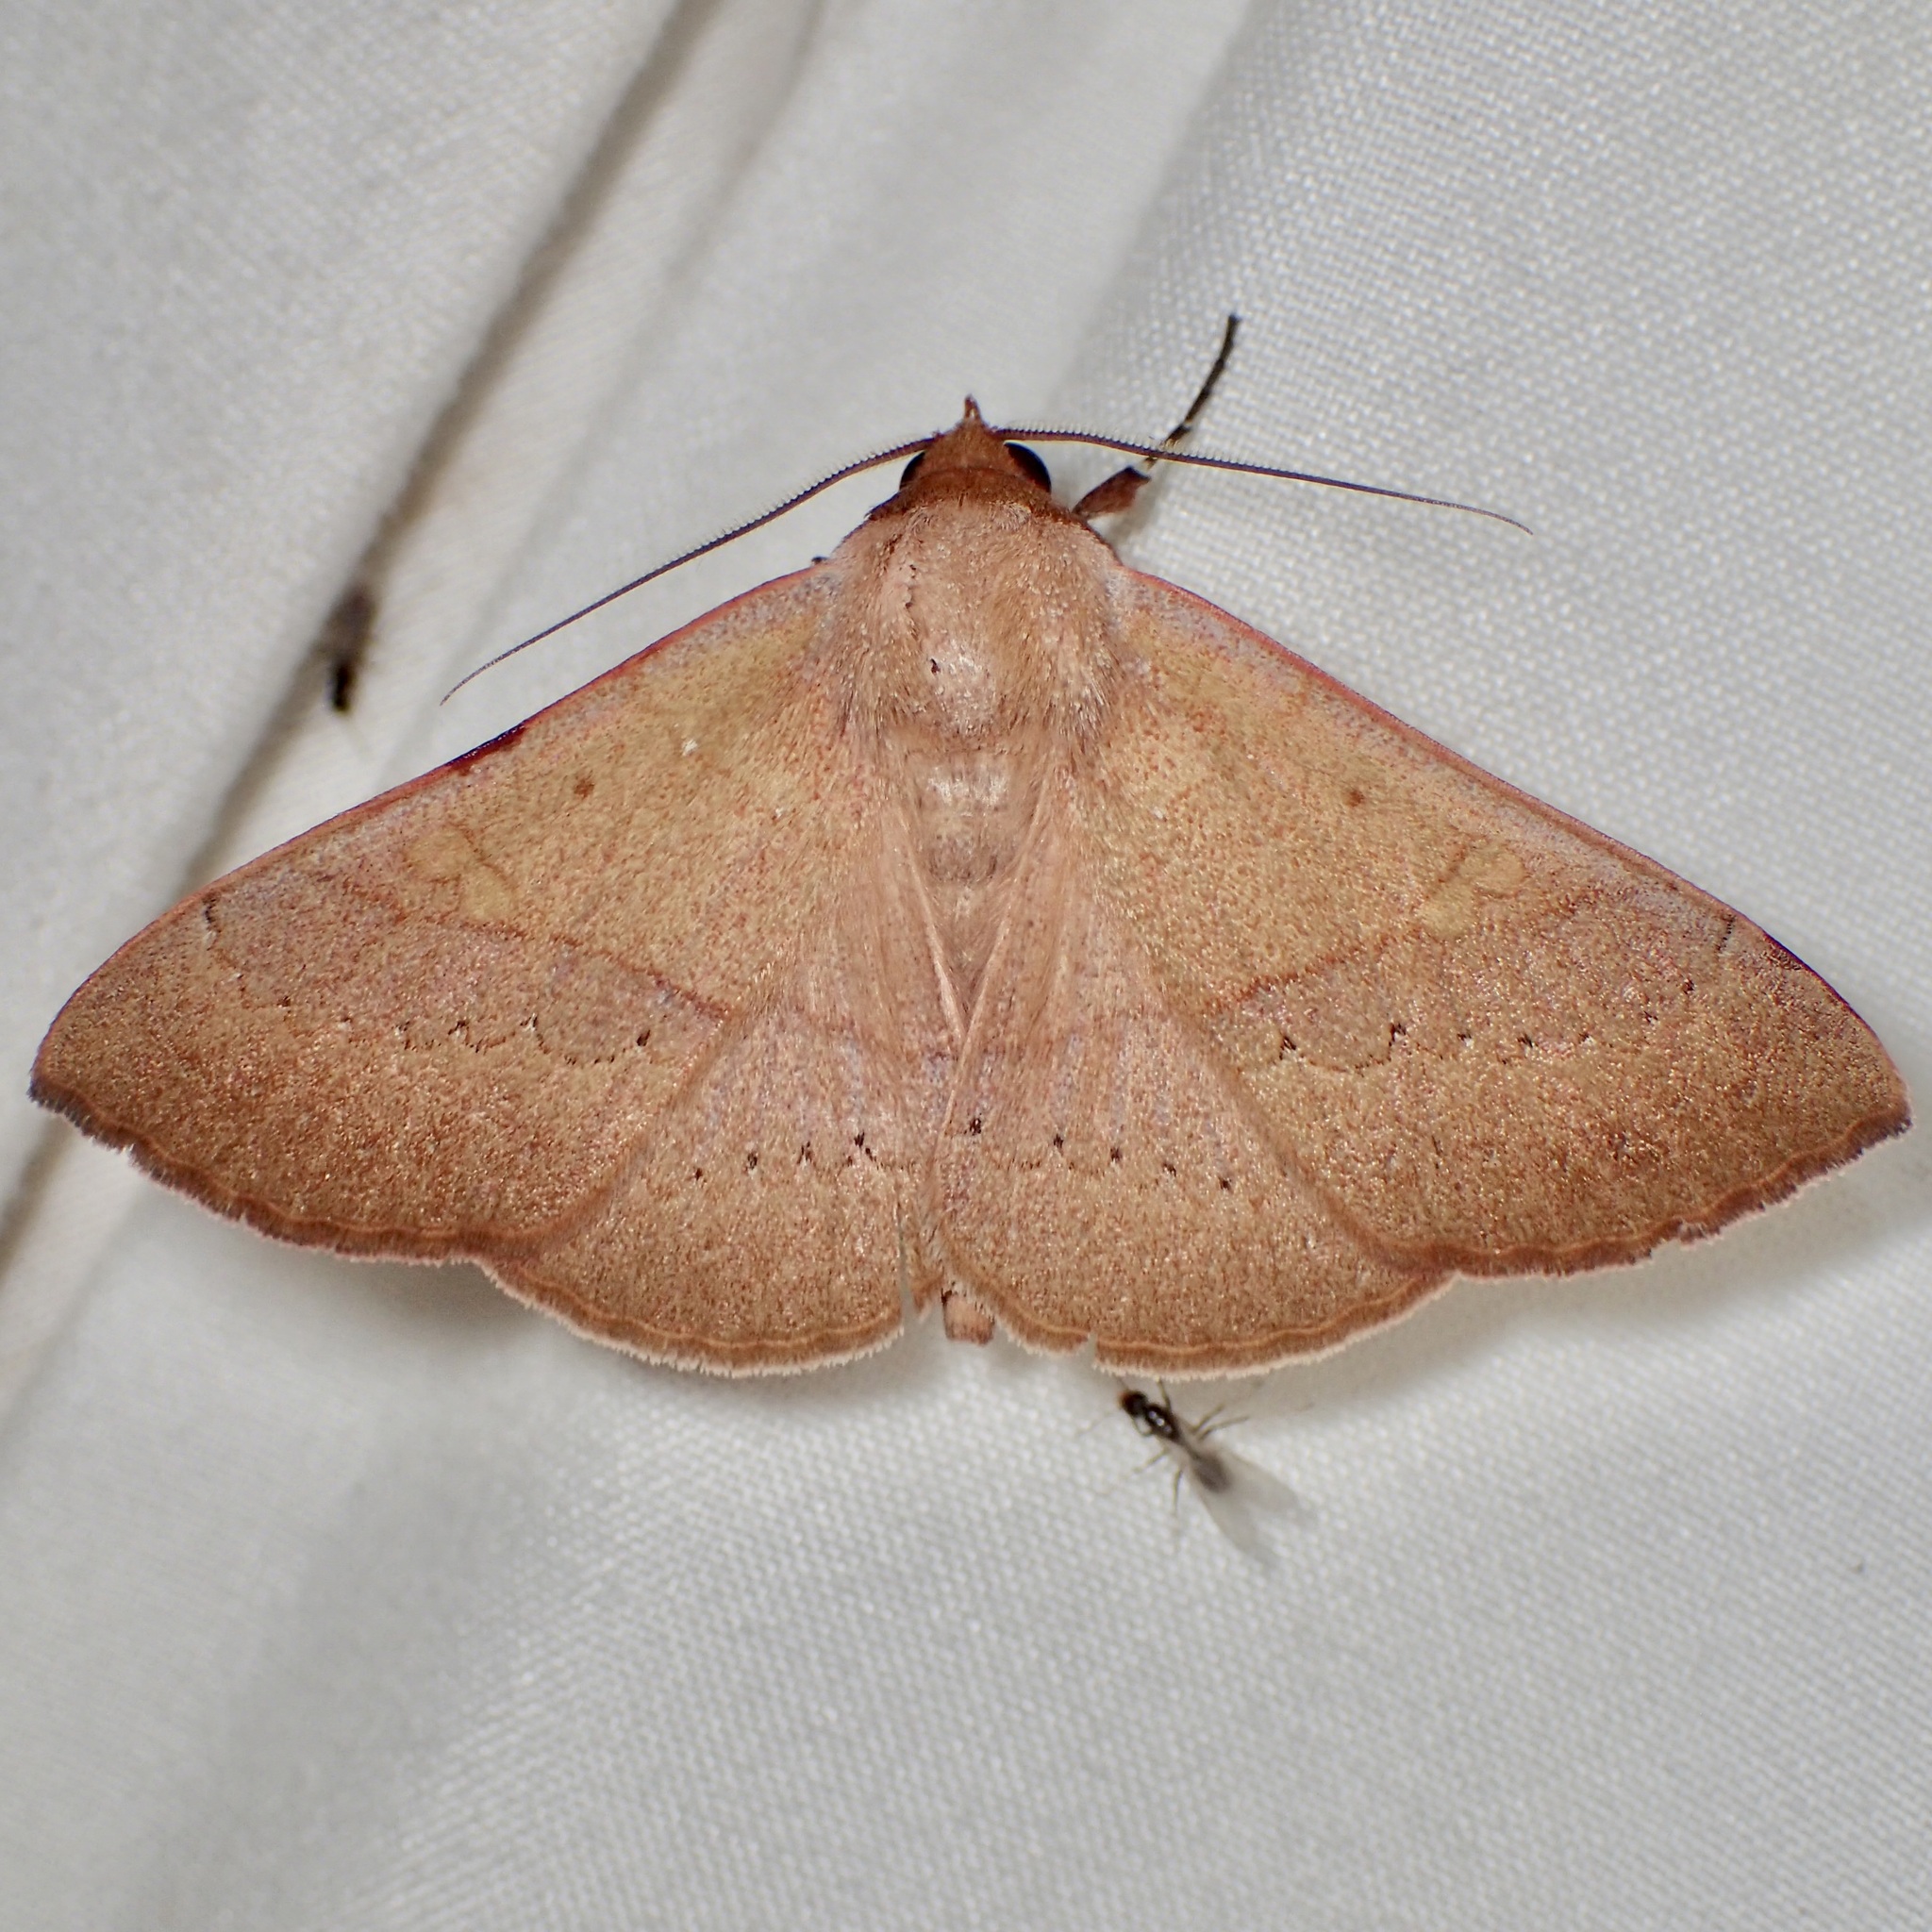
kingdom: Animalia
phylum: Arthropoda
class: Insecta
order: Lepidoptera
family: Erebidae
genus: Panopoda
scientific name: Panopoda rigida
